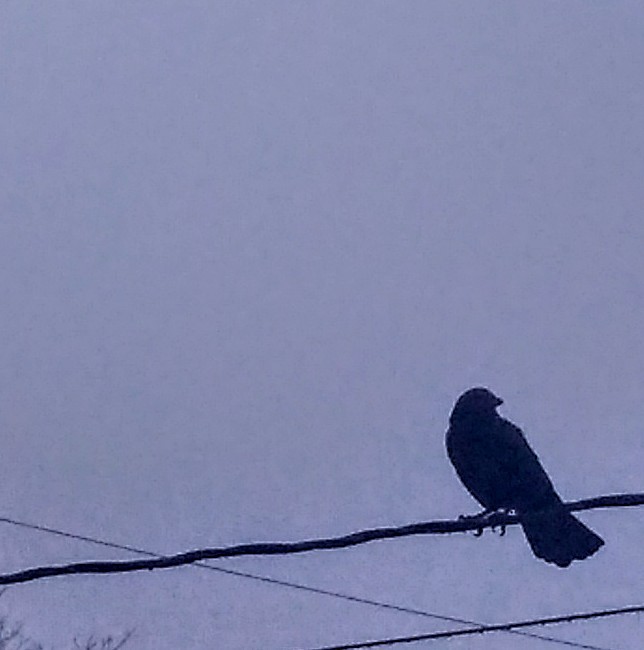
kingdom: Animalia
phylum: Chordata
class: Aves
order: Passeriformes
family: Corvidae
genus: Corvus
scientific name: Corvus brachyrhynchos
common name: American crow
